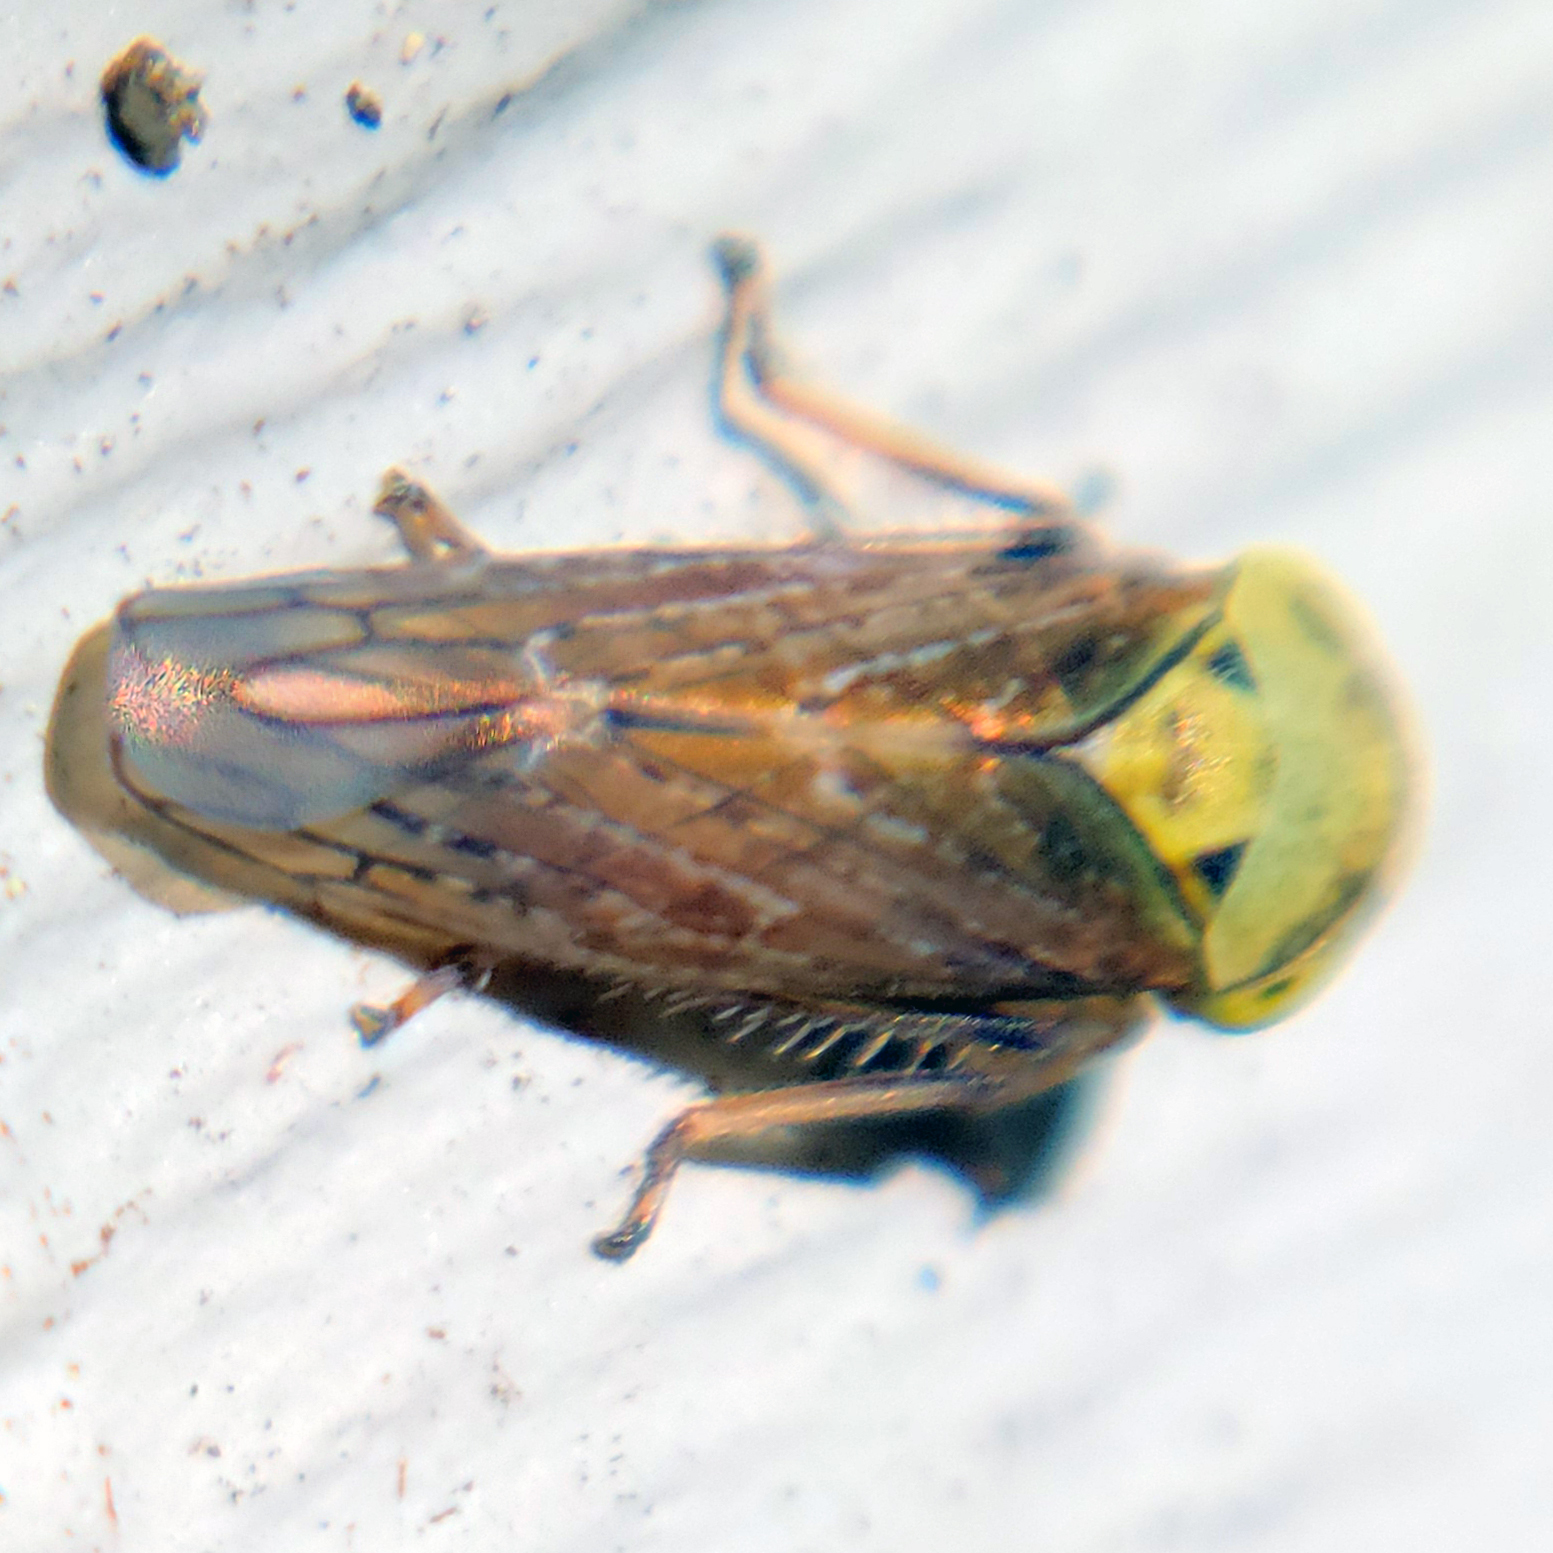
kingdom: Animalia
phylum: Arthropoda
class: Insecta
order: Hemiptera
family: Cicadellidae
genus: Acericerus
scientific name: Acericerus ribauti
